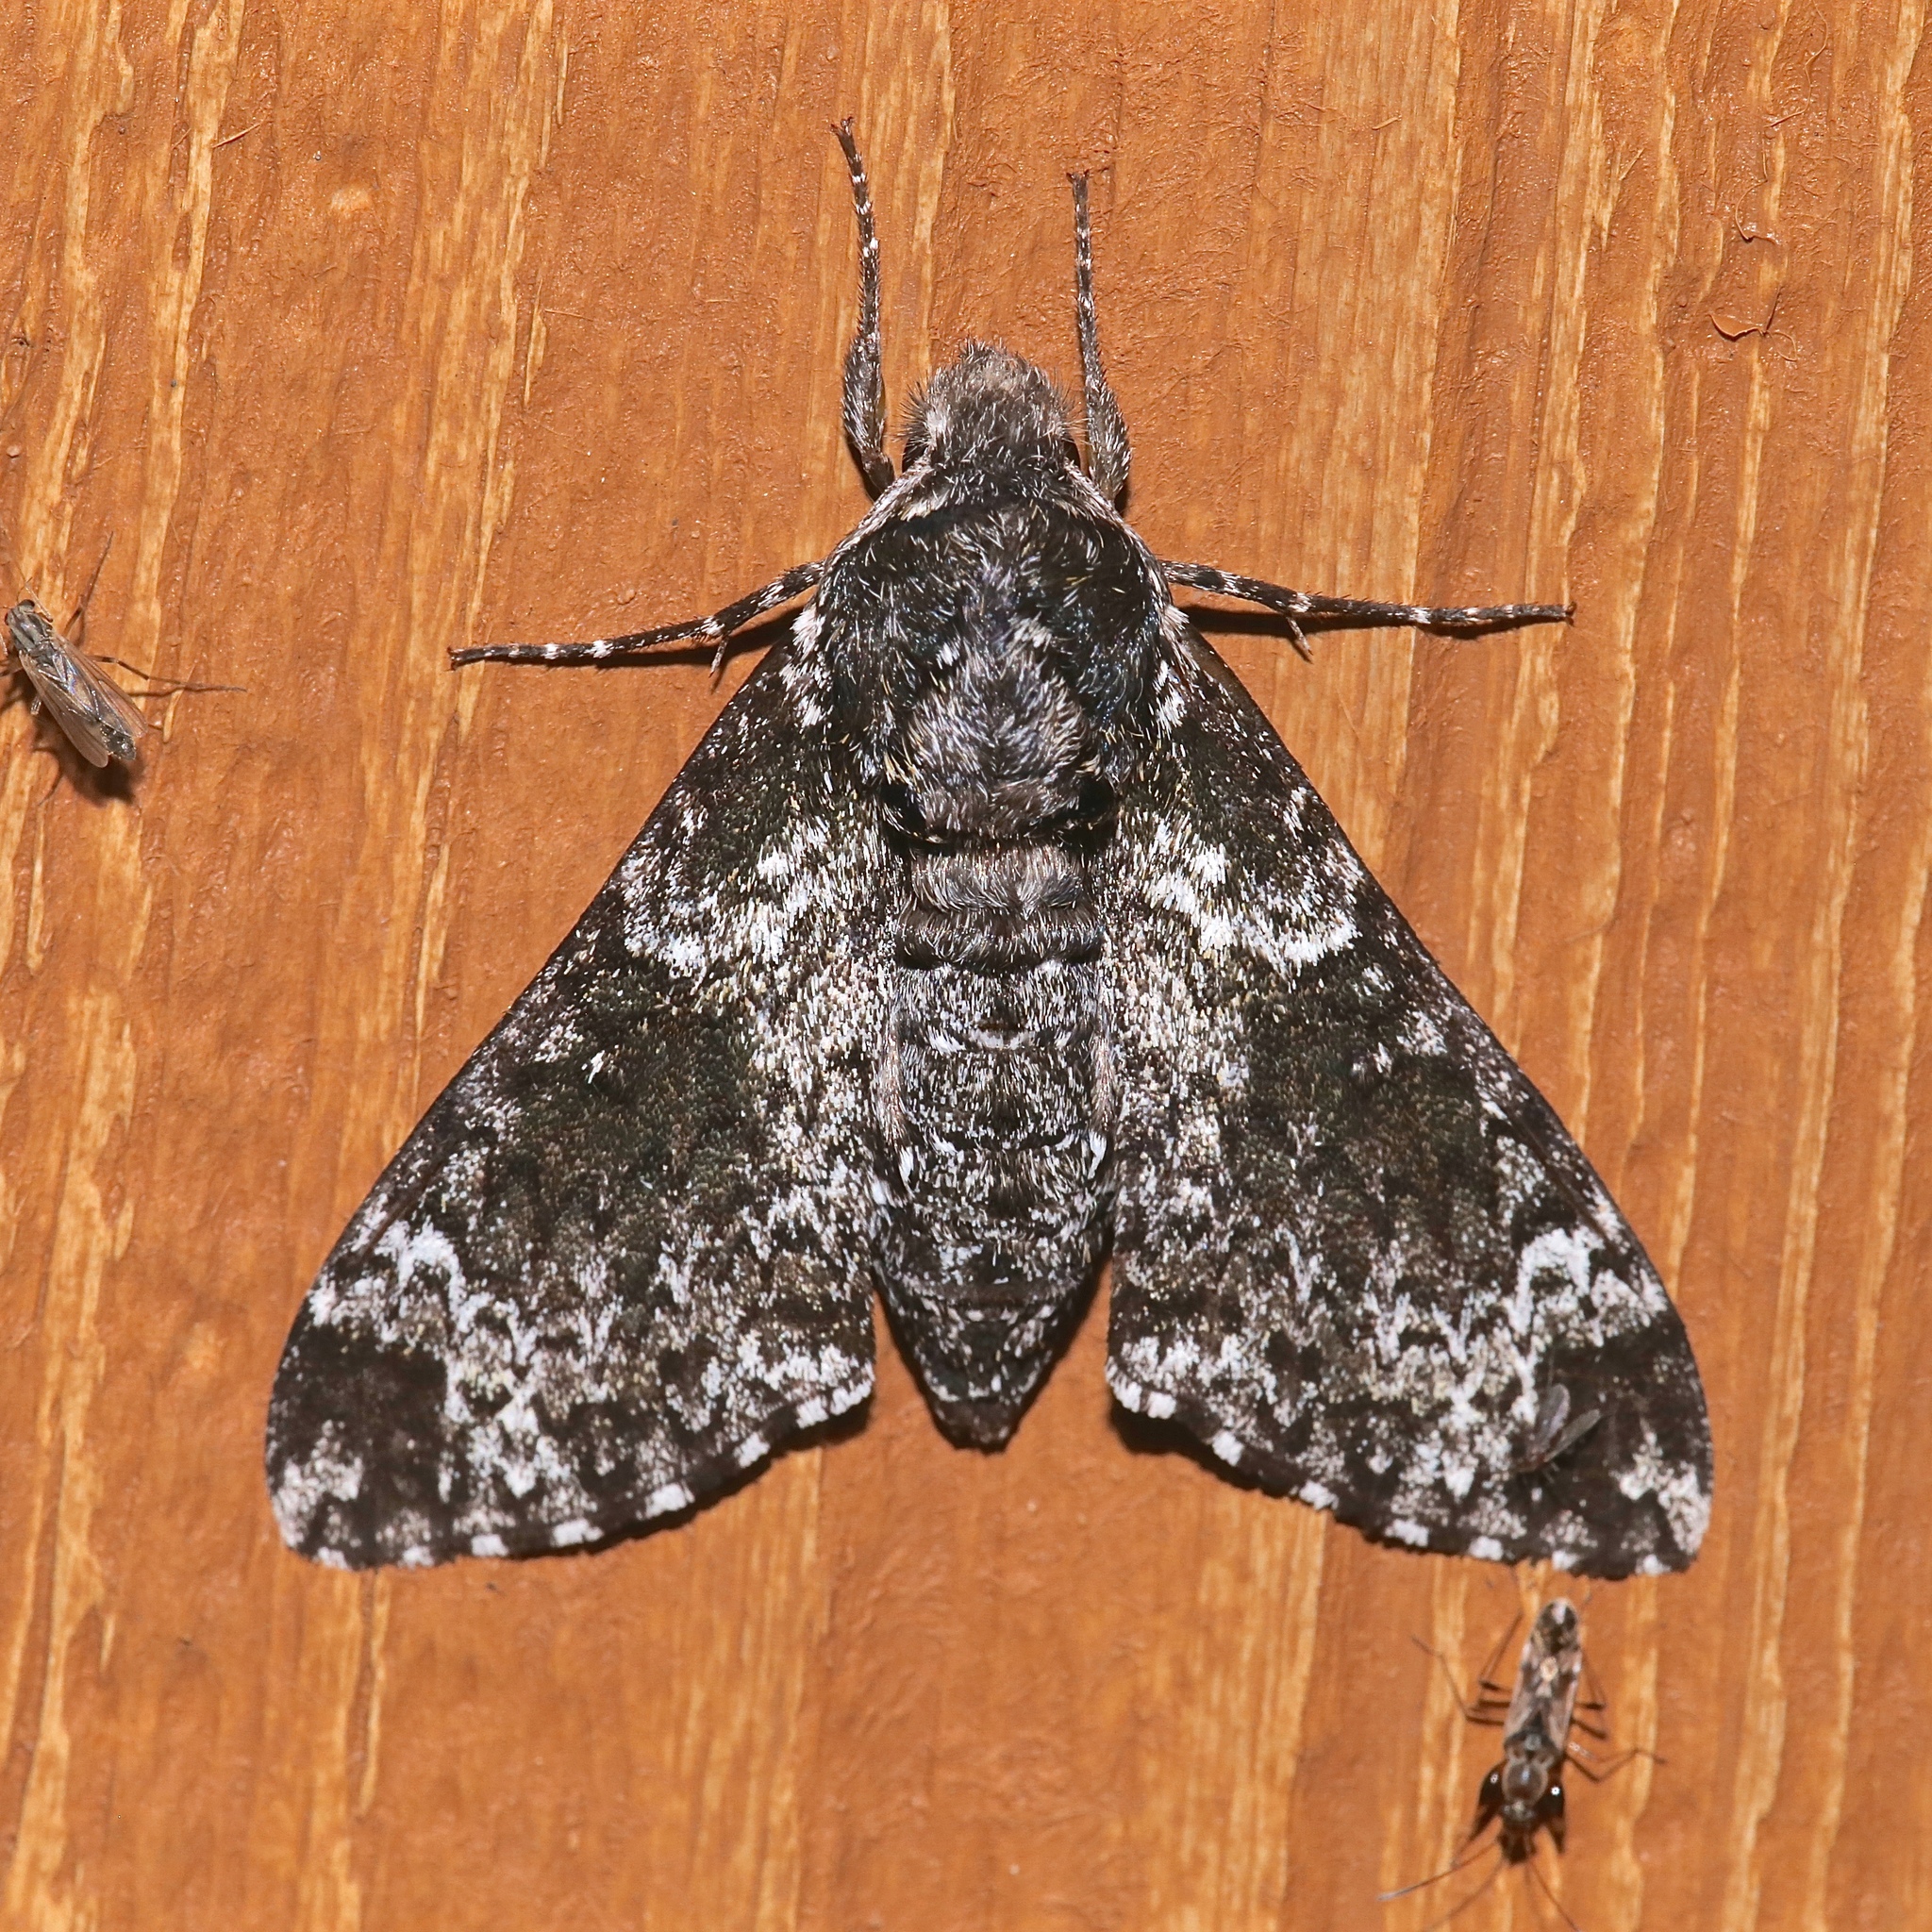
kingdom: Animalia
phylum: Arthropoda
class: Insecta
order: Lepidoptera
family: Sphingidae
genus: Dolba
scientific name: Dolba hyloeus
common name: Pawpaw sphinx
